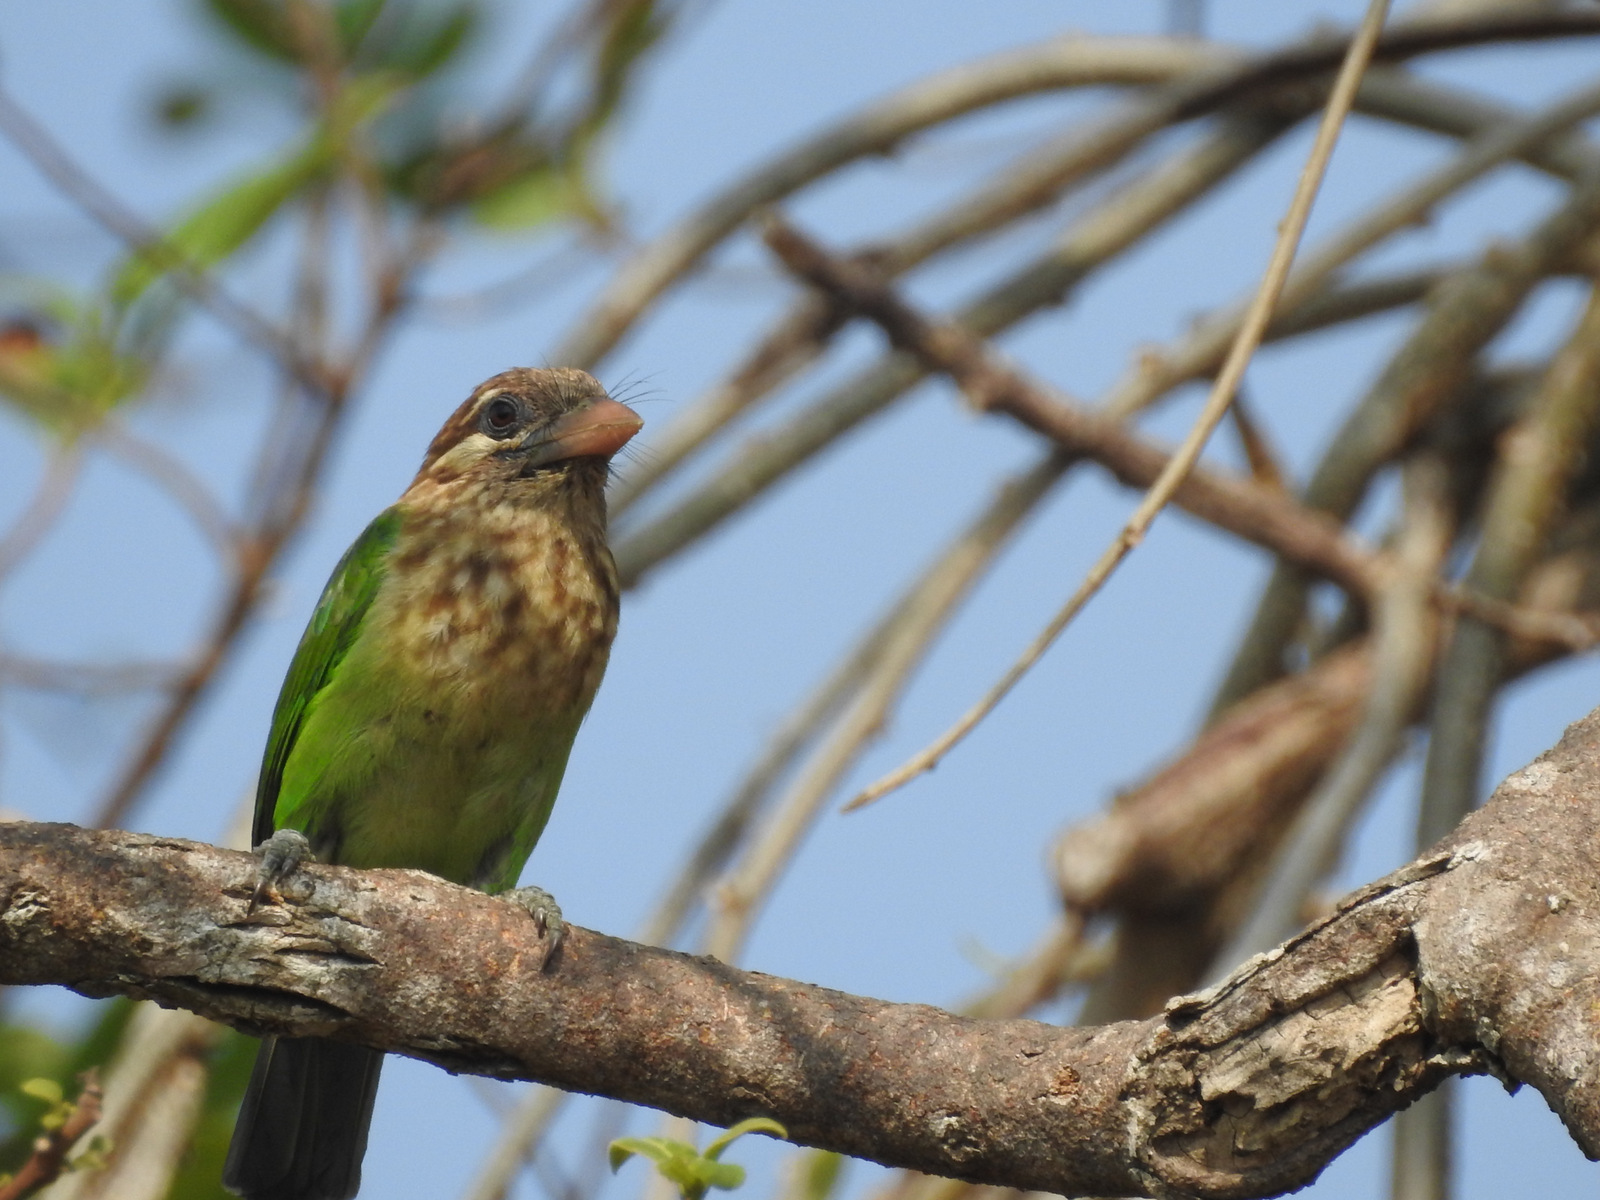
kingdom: Animalia
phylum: Chordata
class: Aves
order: Piciformes
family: Megalaimidae
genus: Psilopogon
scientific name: Psilopogon viridis
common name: White-cheeked barbet
